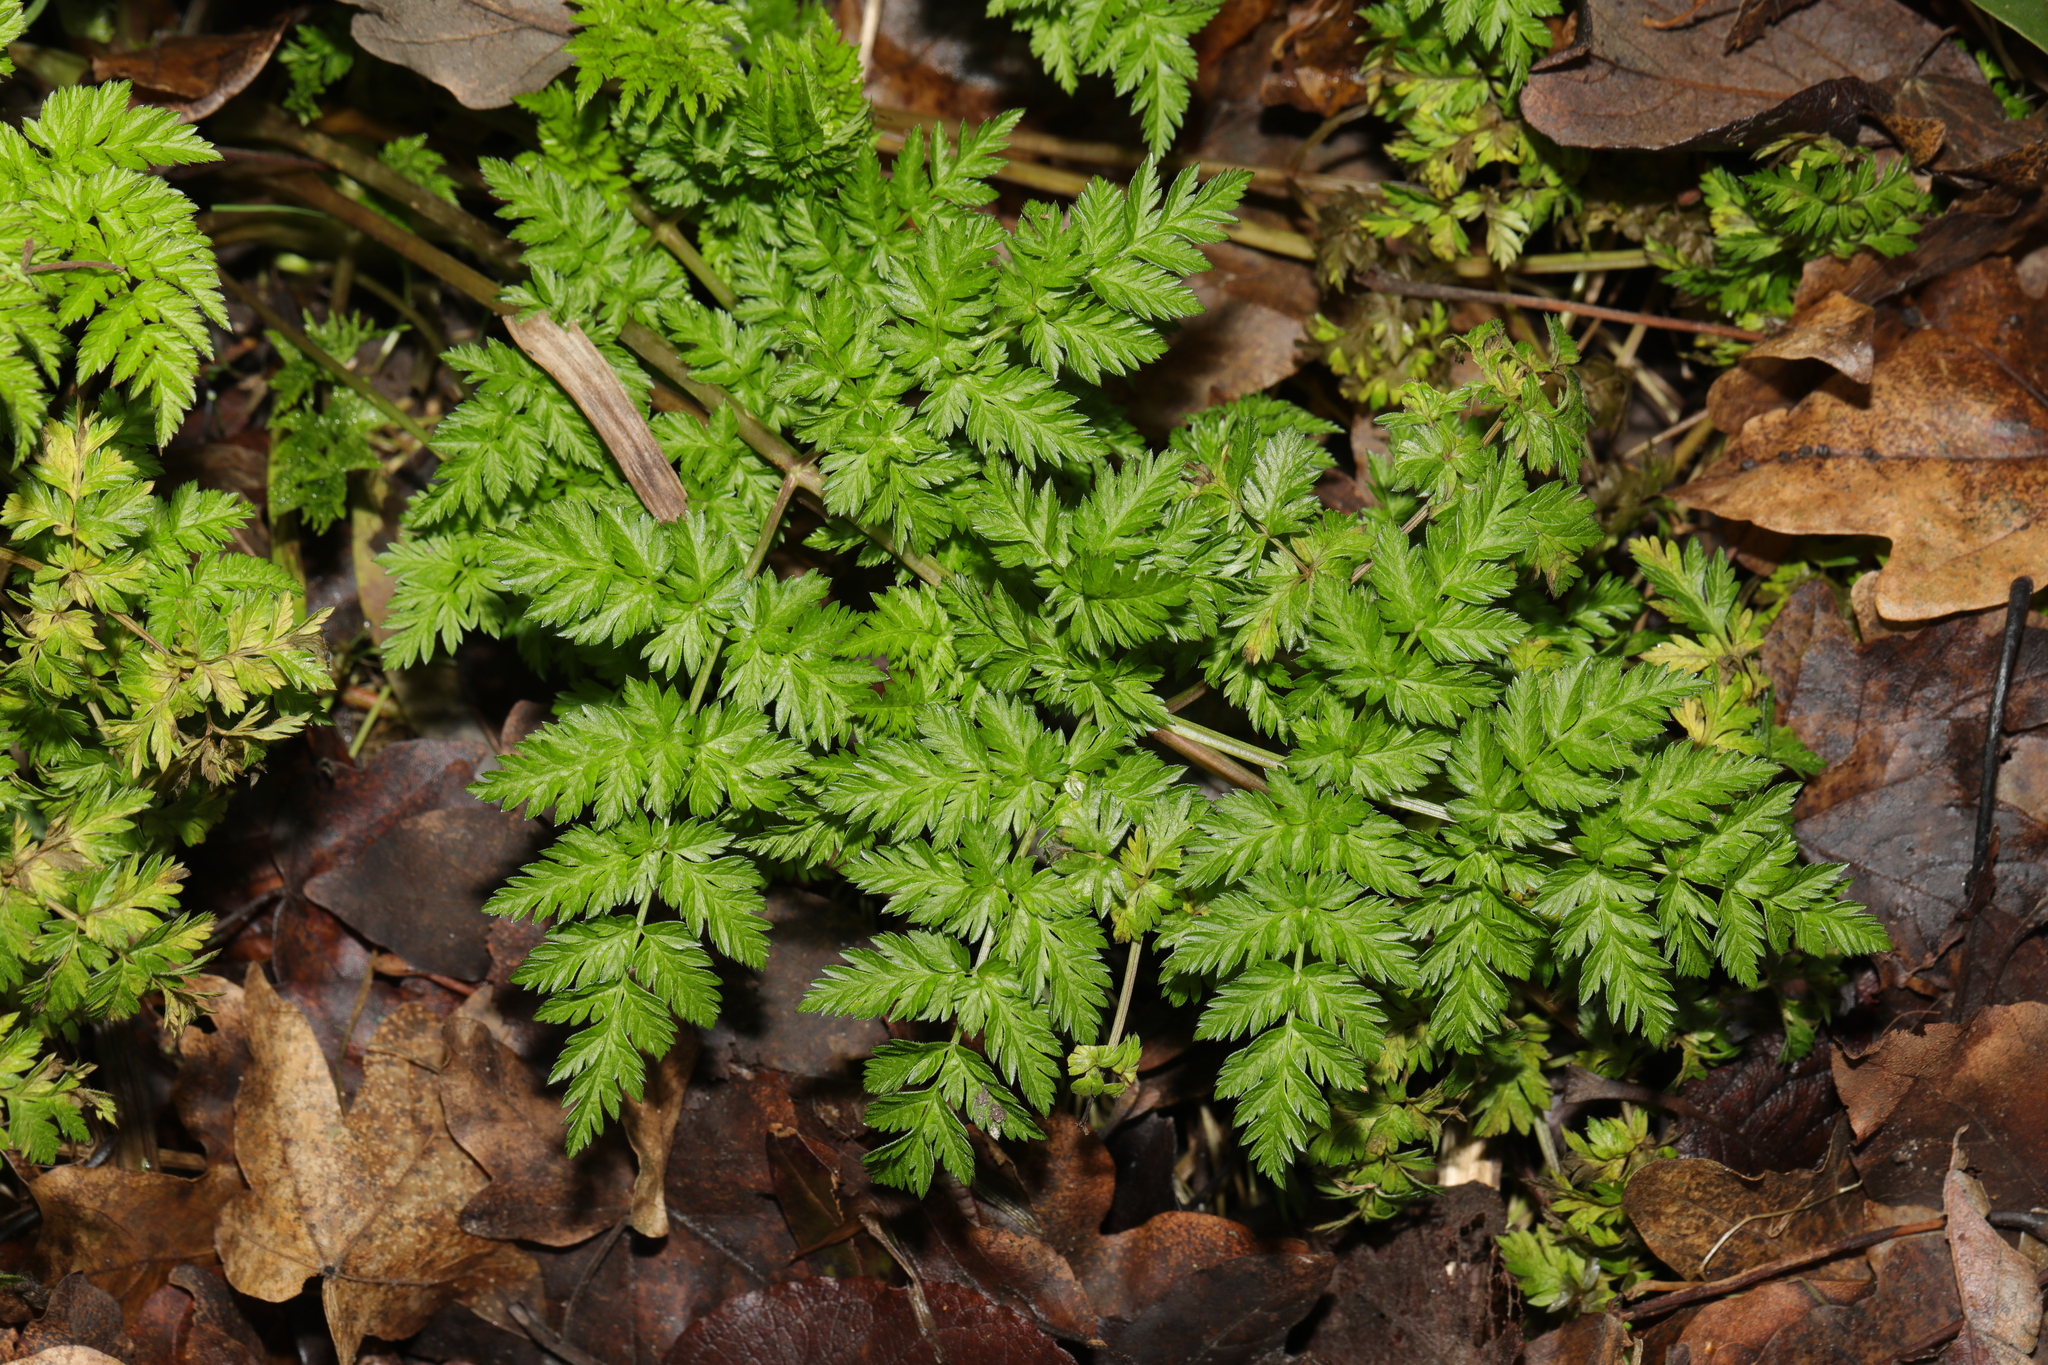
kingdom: Plantae
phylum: Tracheophyta
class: Magnoliopsida
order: Apiales
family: Apiaceae
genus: Anthriscus
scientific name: Anthriscus sylvestris
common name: Cow parsley
